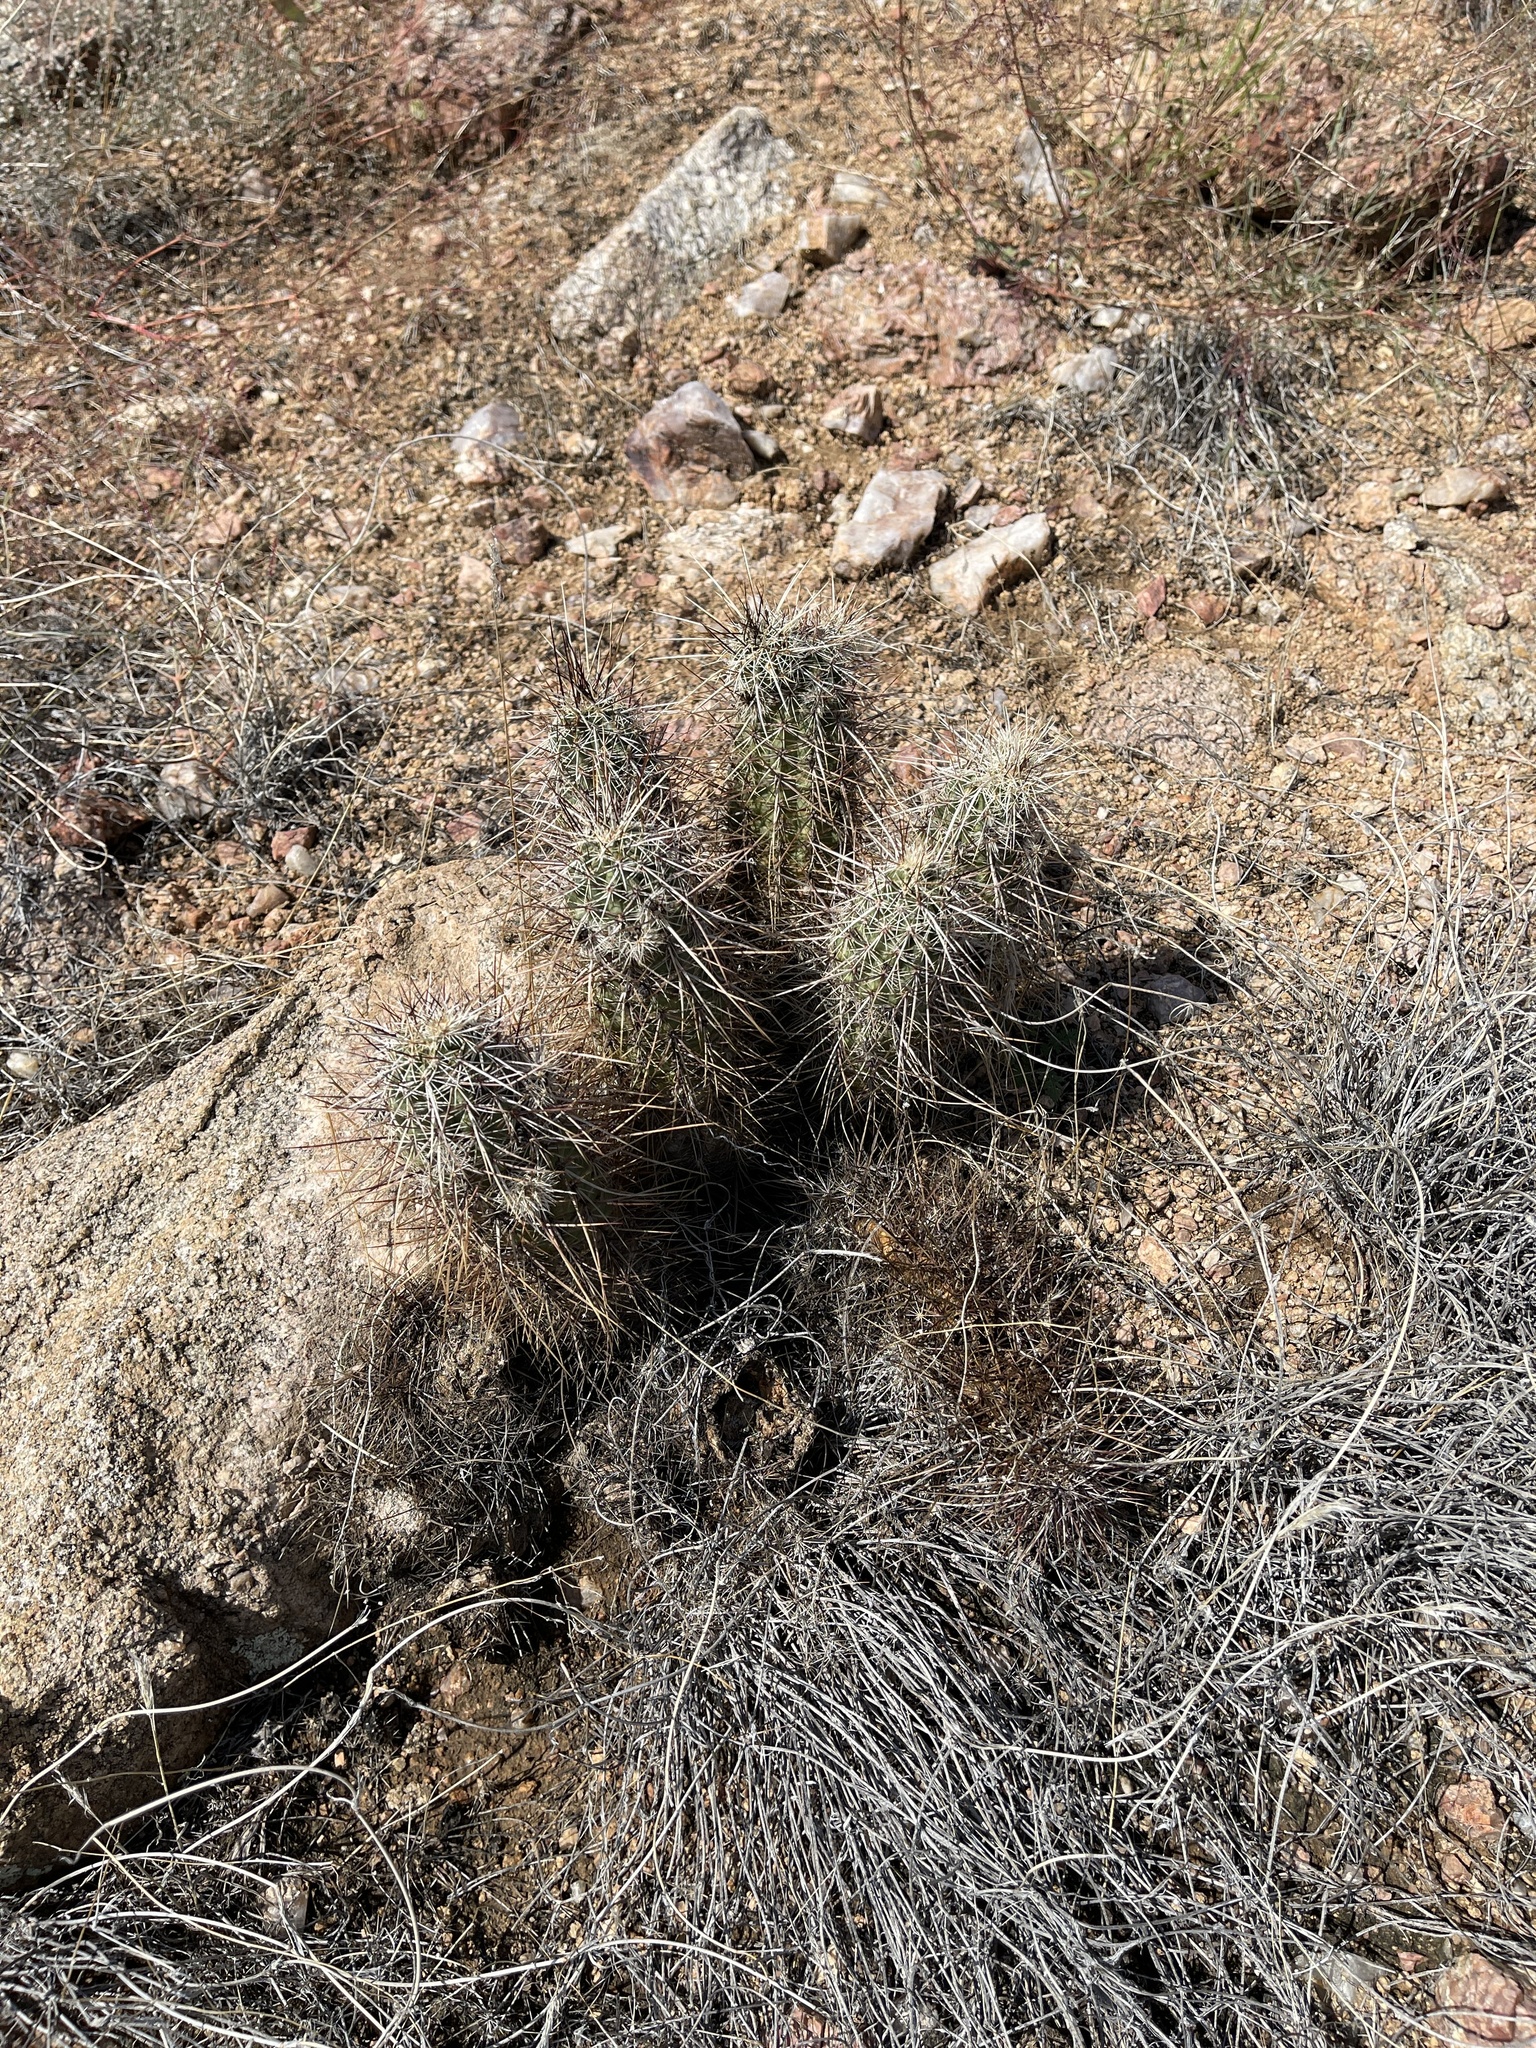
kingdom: Plantae
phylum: Tracheophyta
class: Magnoliopsida
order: Caryophyllales
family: Cactaceae
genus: Echinocereus
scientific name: Echinocereus engelmannii
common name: Engelmann's hedgehog cactus
